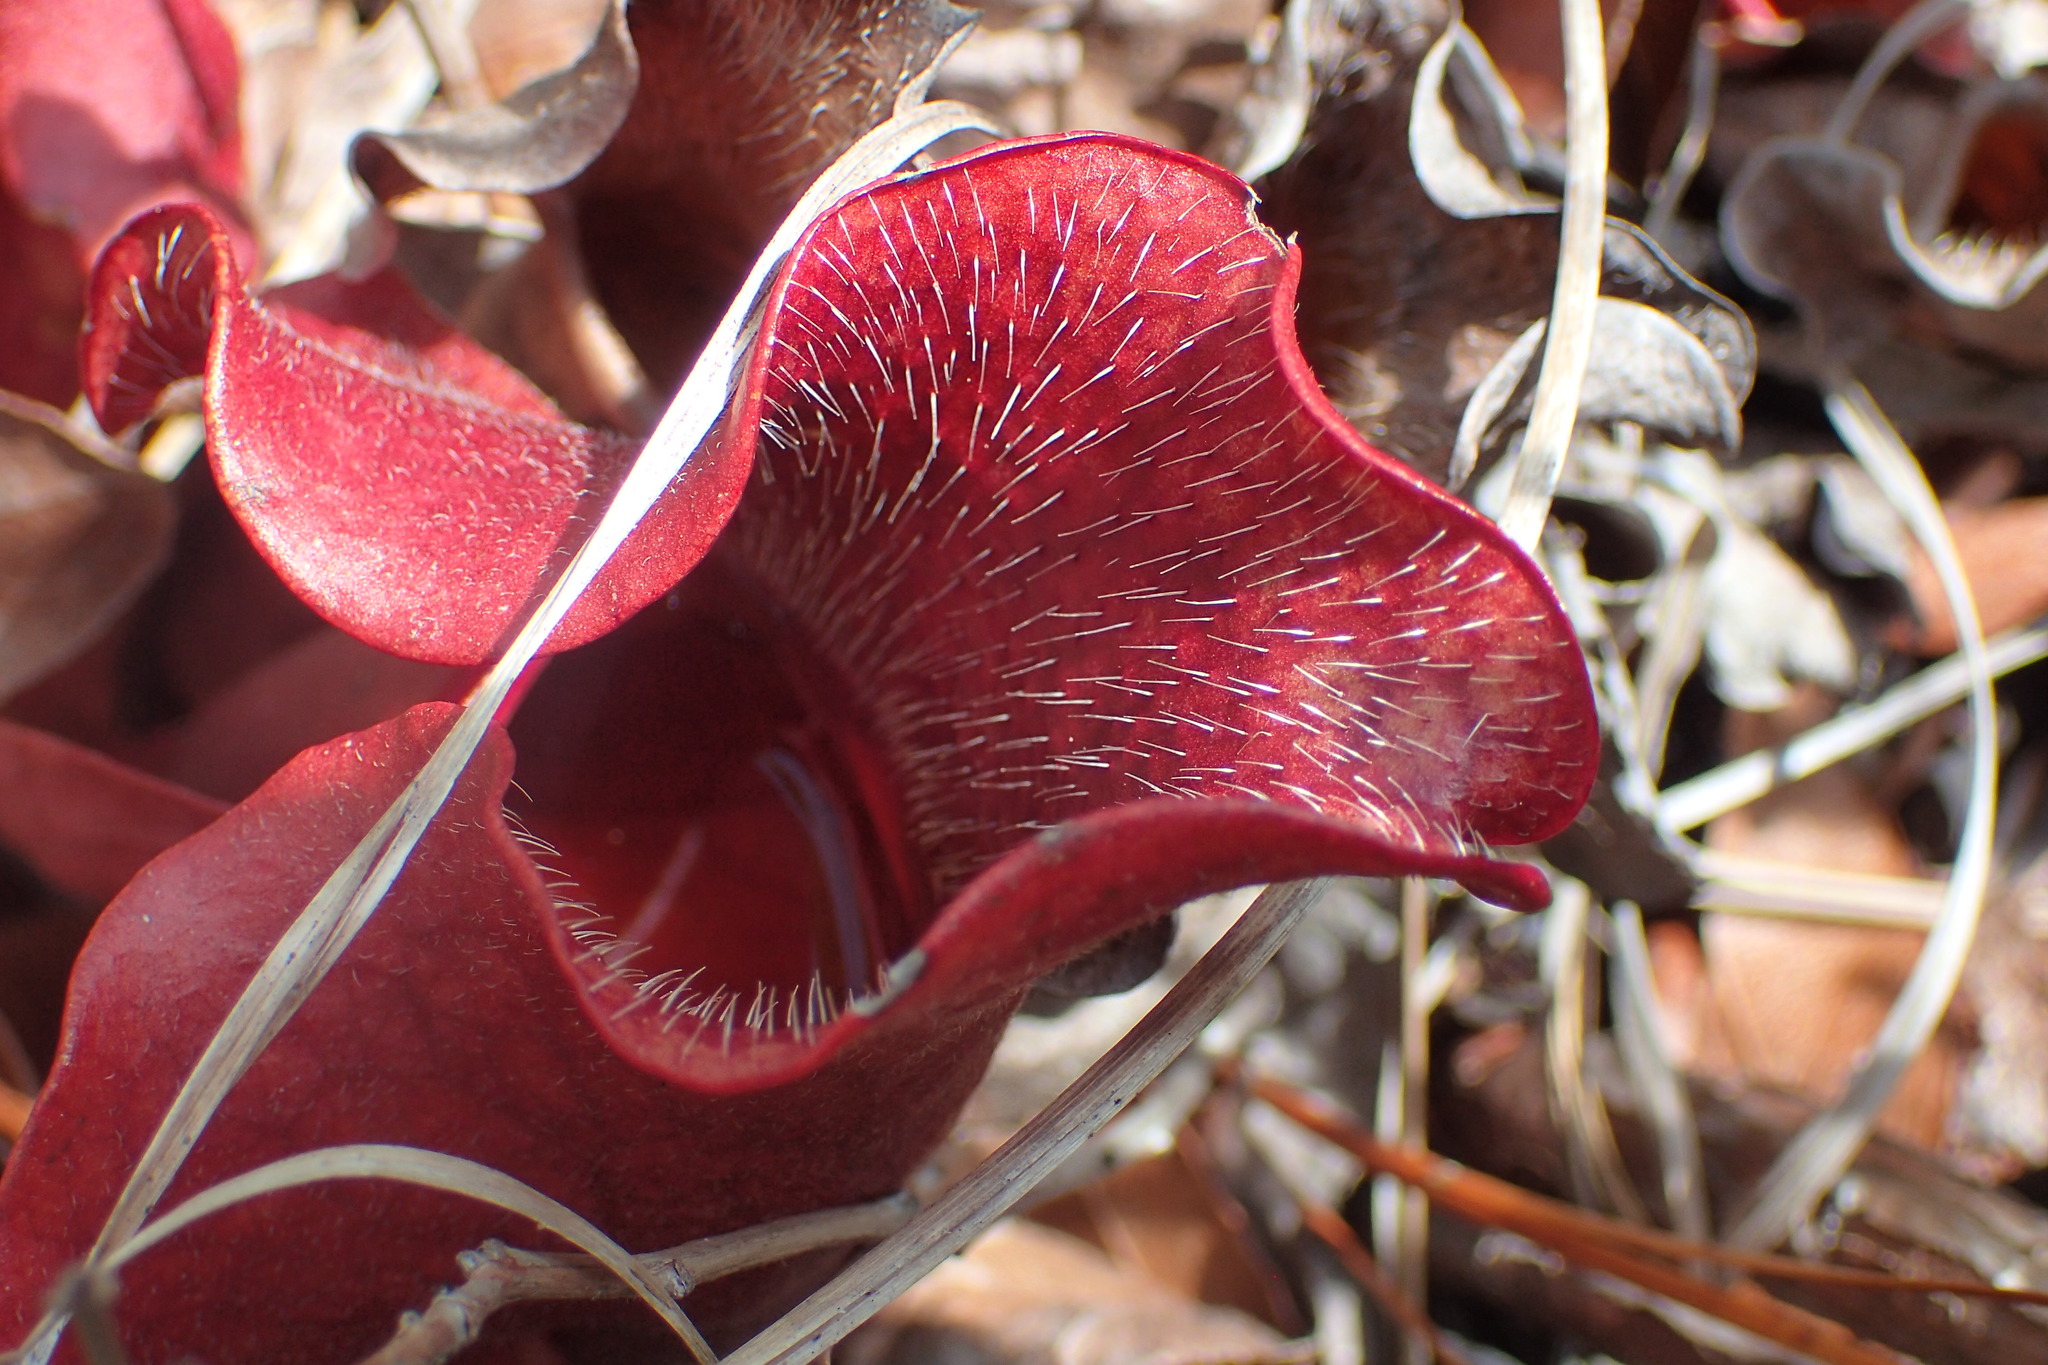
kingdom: Plantae
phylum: Tracheophyta
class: Magnoliopsida
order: Ericales
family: Sarraceniaceae
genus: Sarracenia
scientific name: Sarracenia purpurea
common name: Pitcherplant
